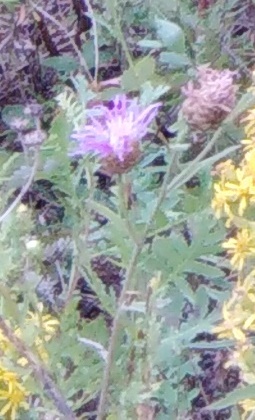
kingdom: Plantae
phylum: Tracheophyta
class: Magnoliopsida
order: Asterales
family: Asteraceae
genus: Centaurea
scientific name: Centaurea jacea
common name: Brown knapweed
